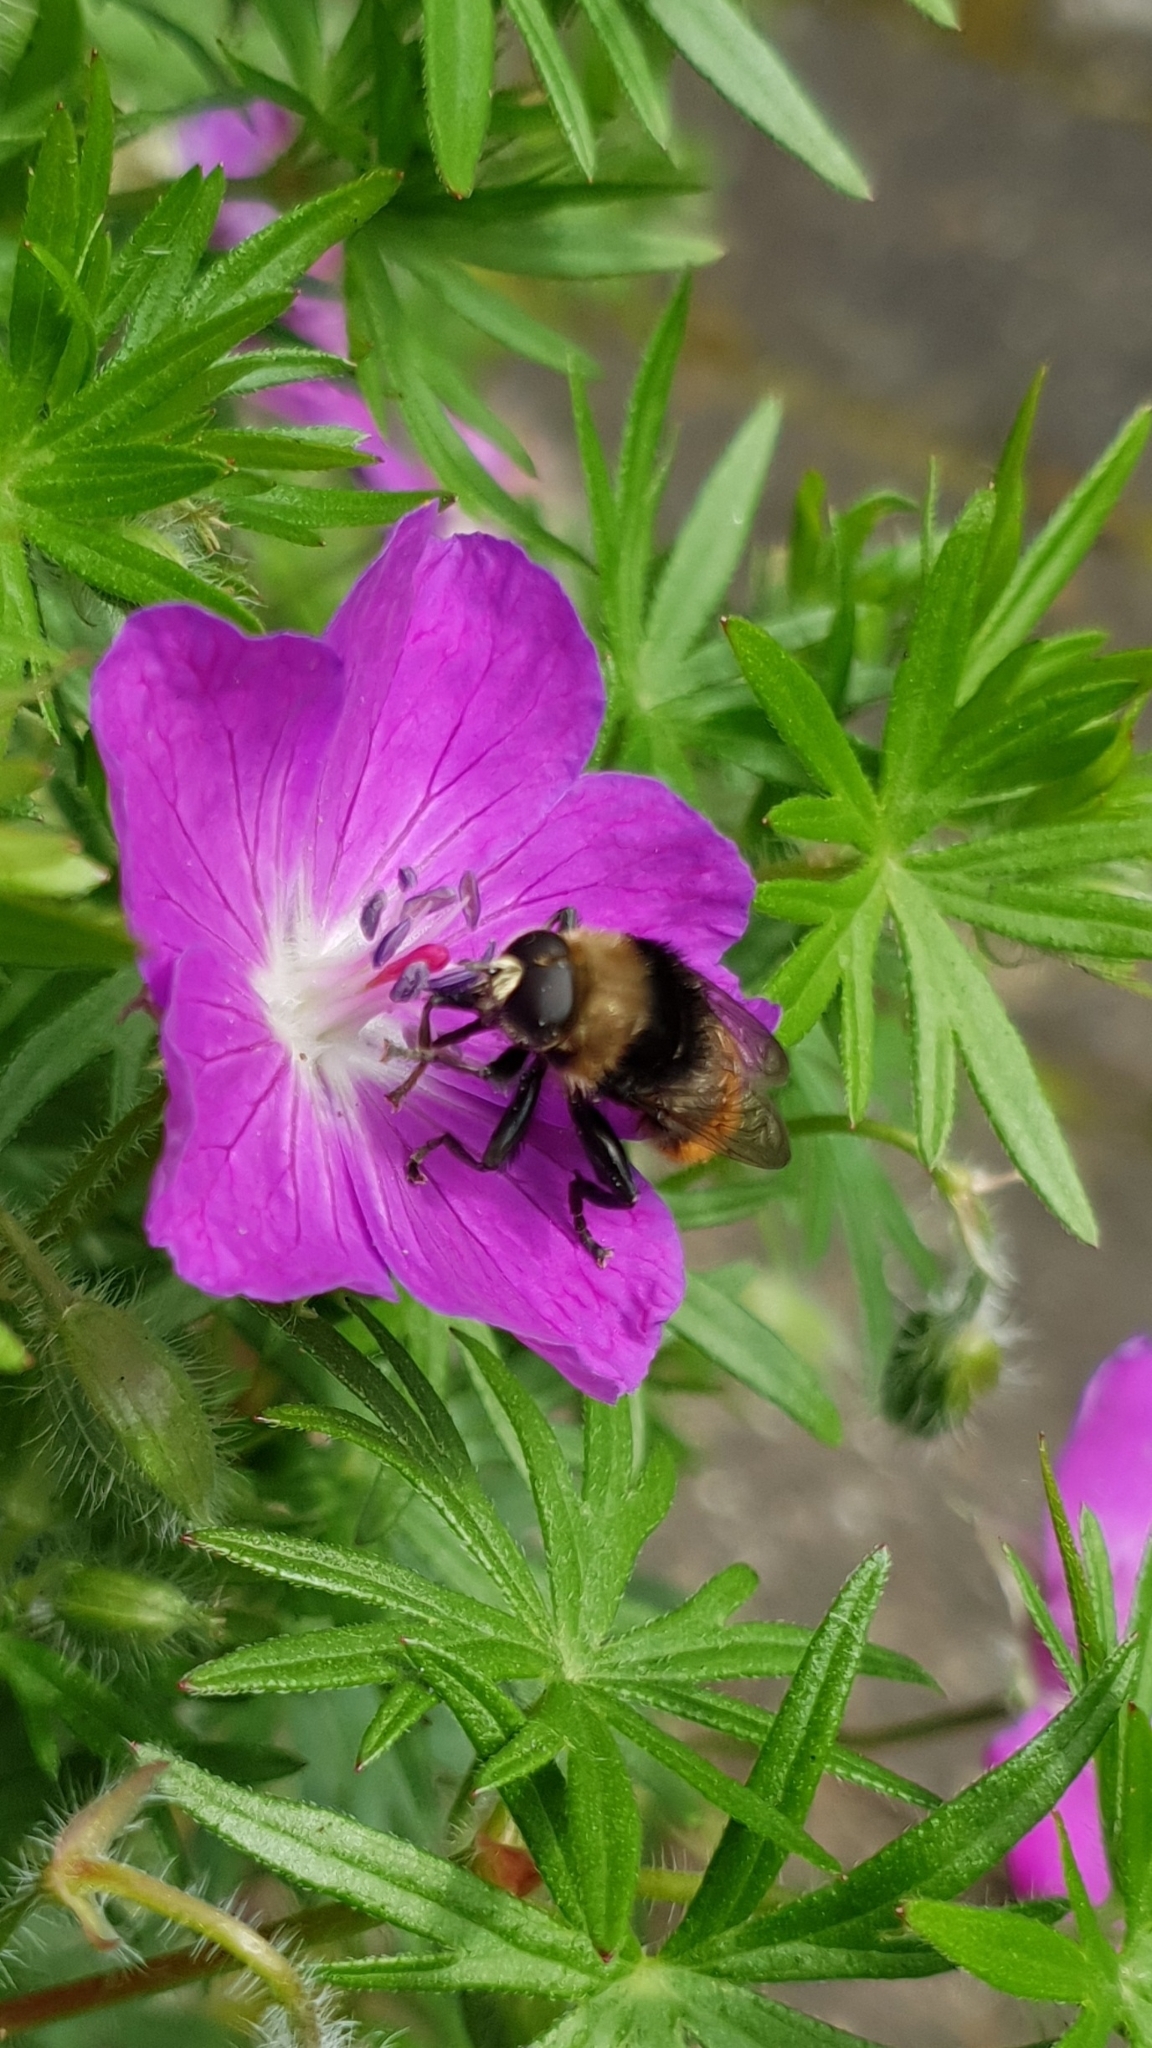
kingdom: Animalia
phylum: Arthropoda
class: Insecta
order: Diptera
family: Syrphidae
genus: Merodon
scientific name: Merodon equestris
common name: Greater bulb-fly
